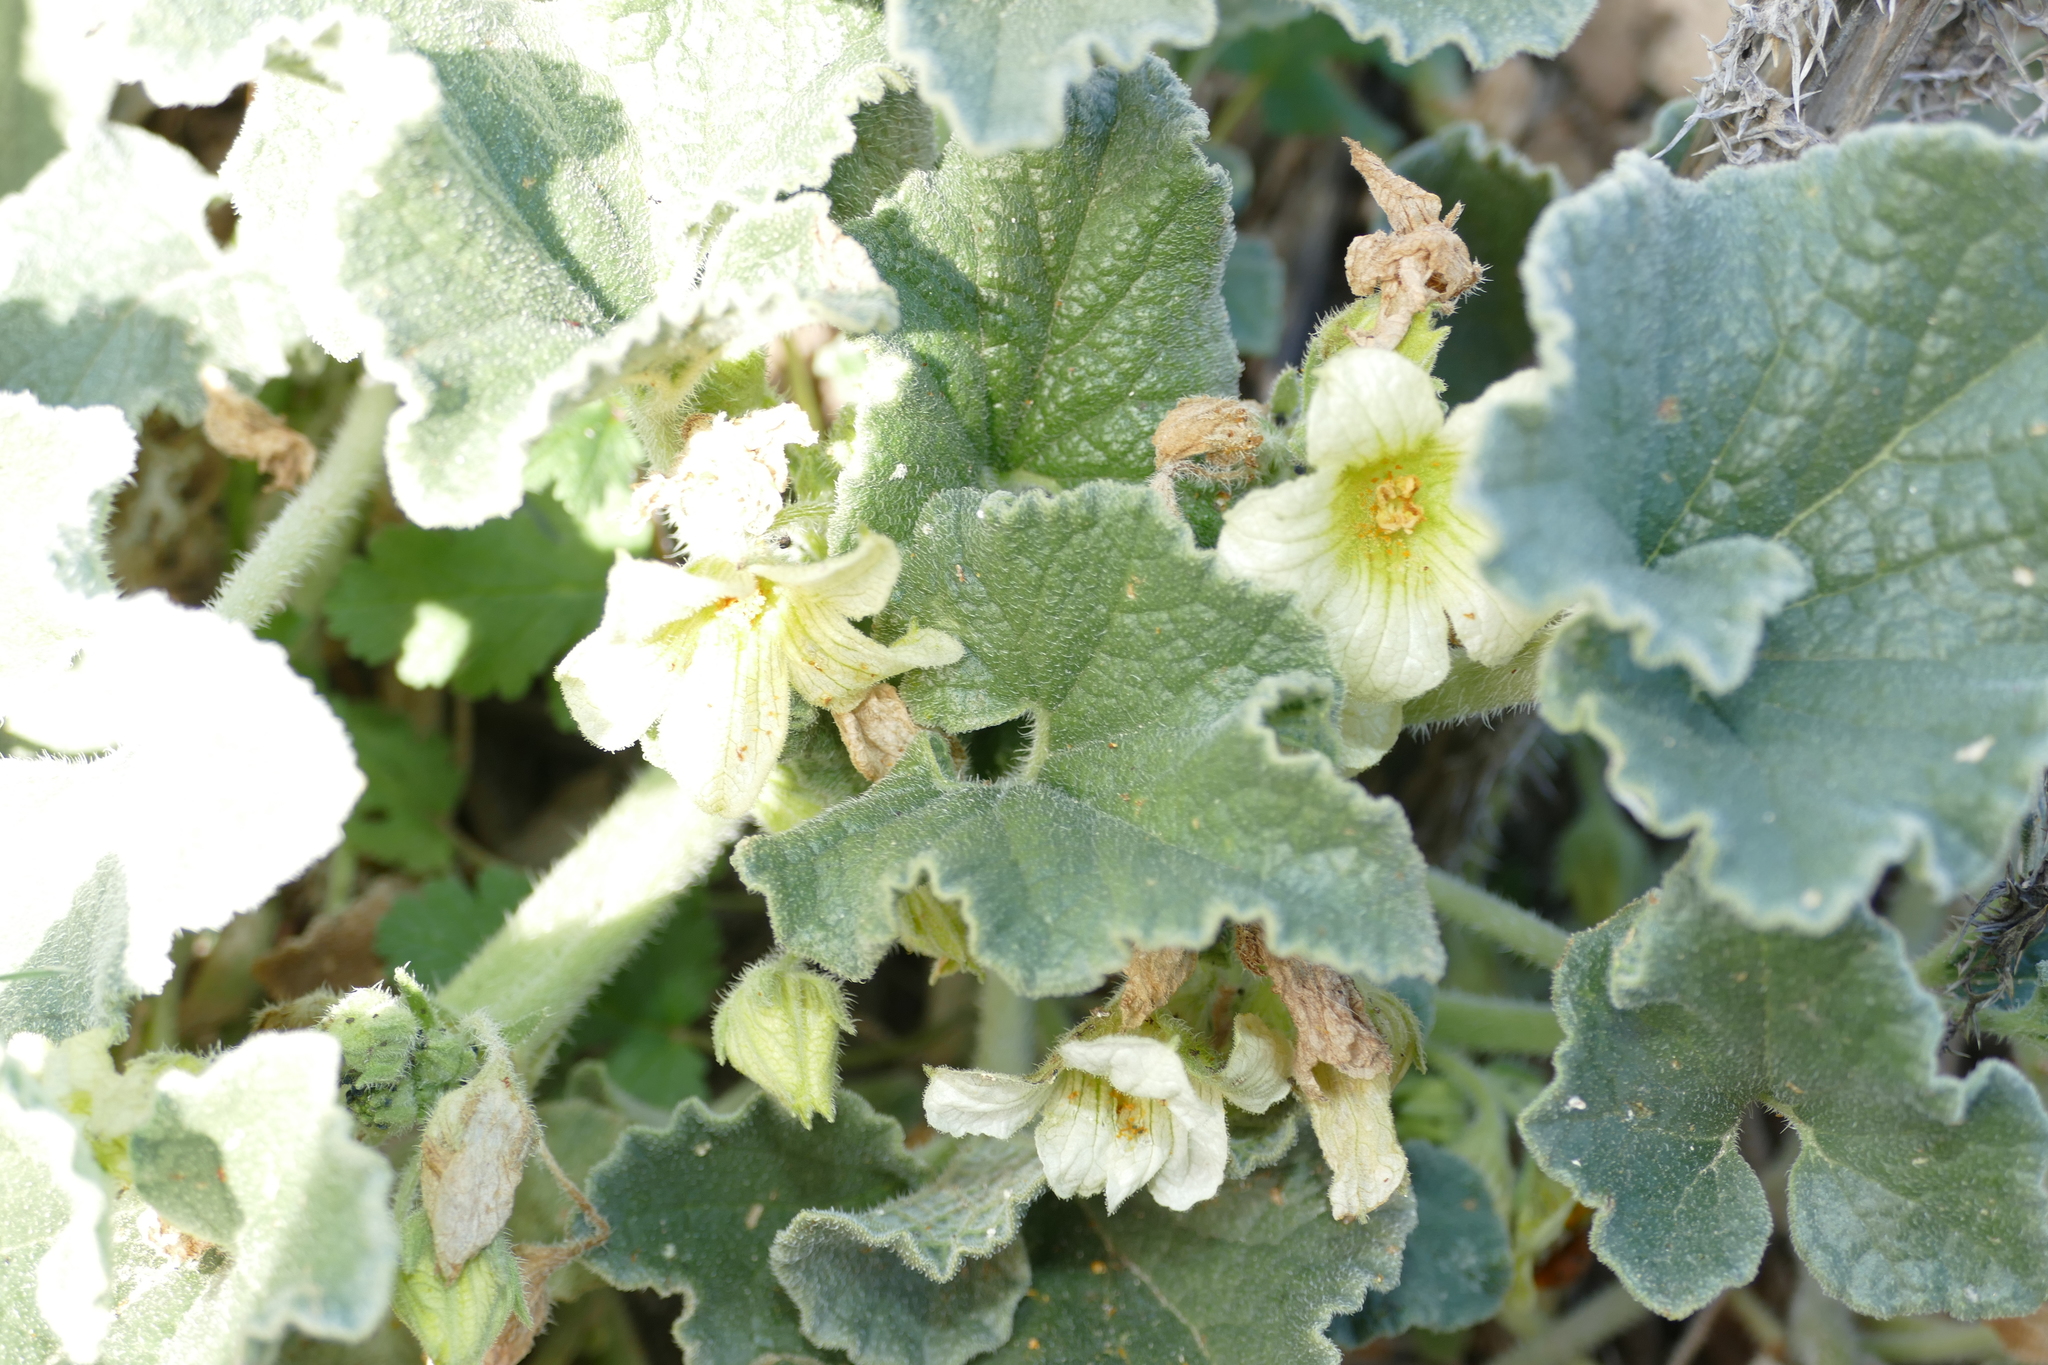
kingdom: Plantae
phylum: Tracheophyta
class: Magnoliopsida
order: Cucurbitales
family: Cucurbitaceae
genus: Ecballium
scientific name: Ecballium elaterium
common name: Squirting cucumber
